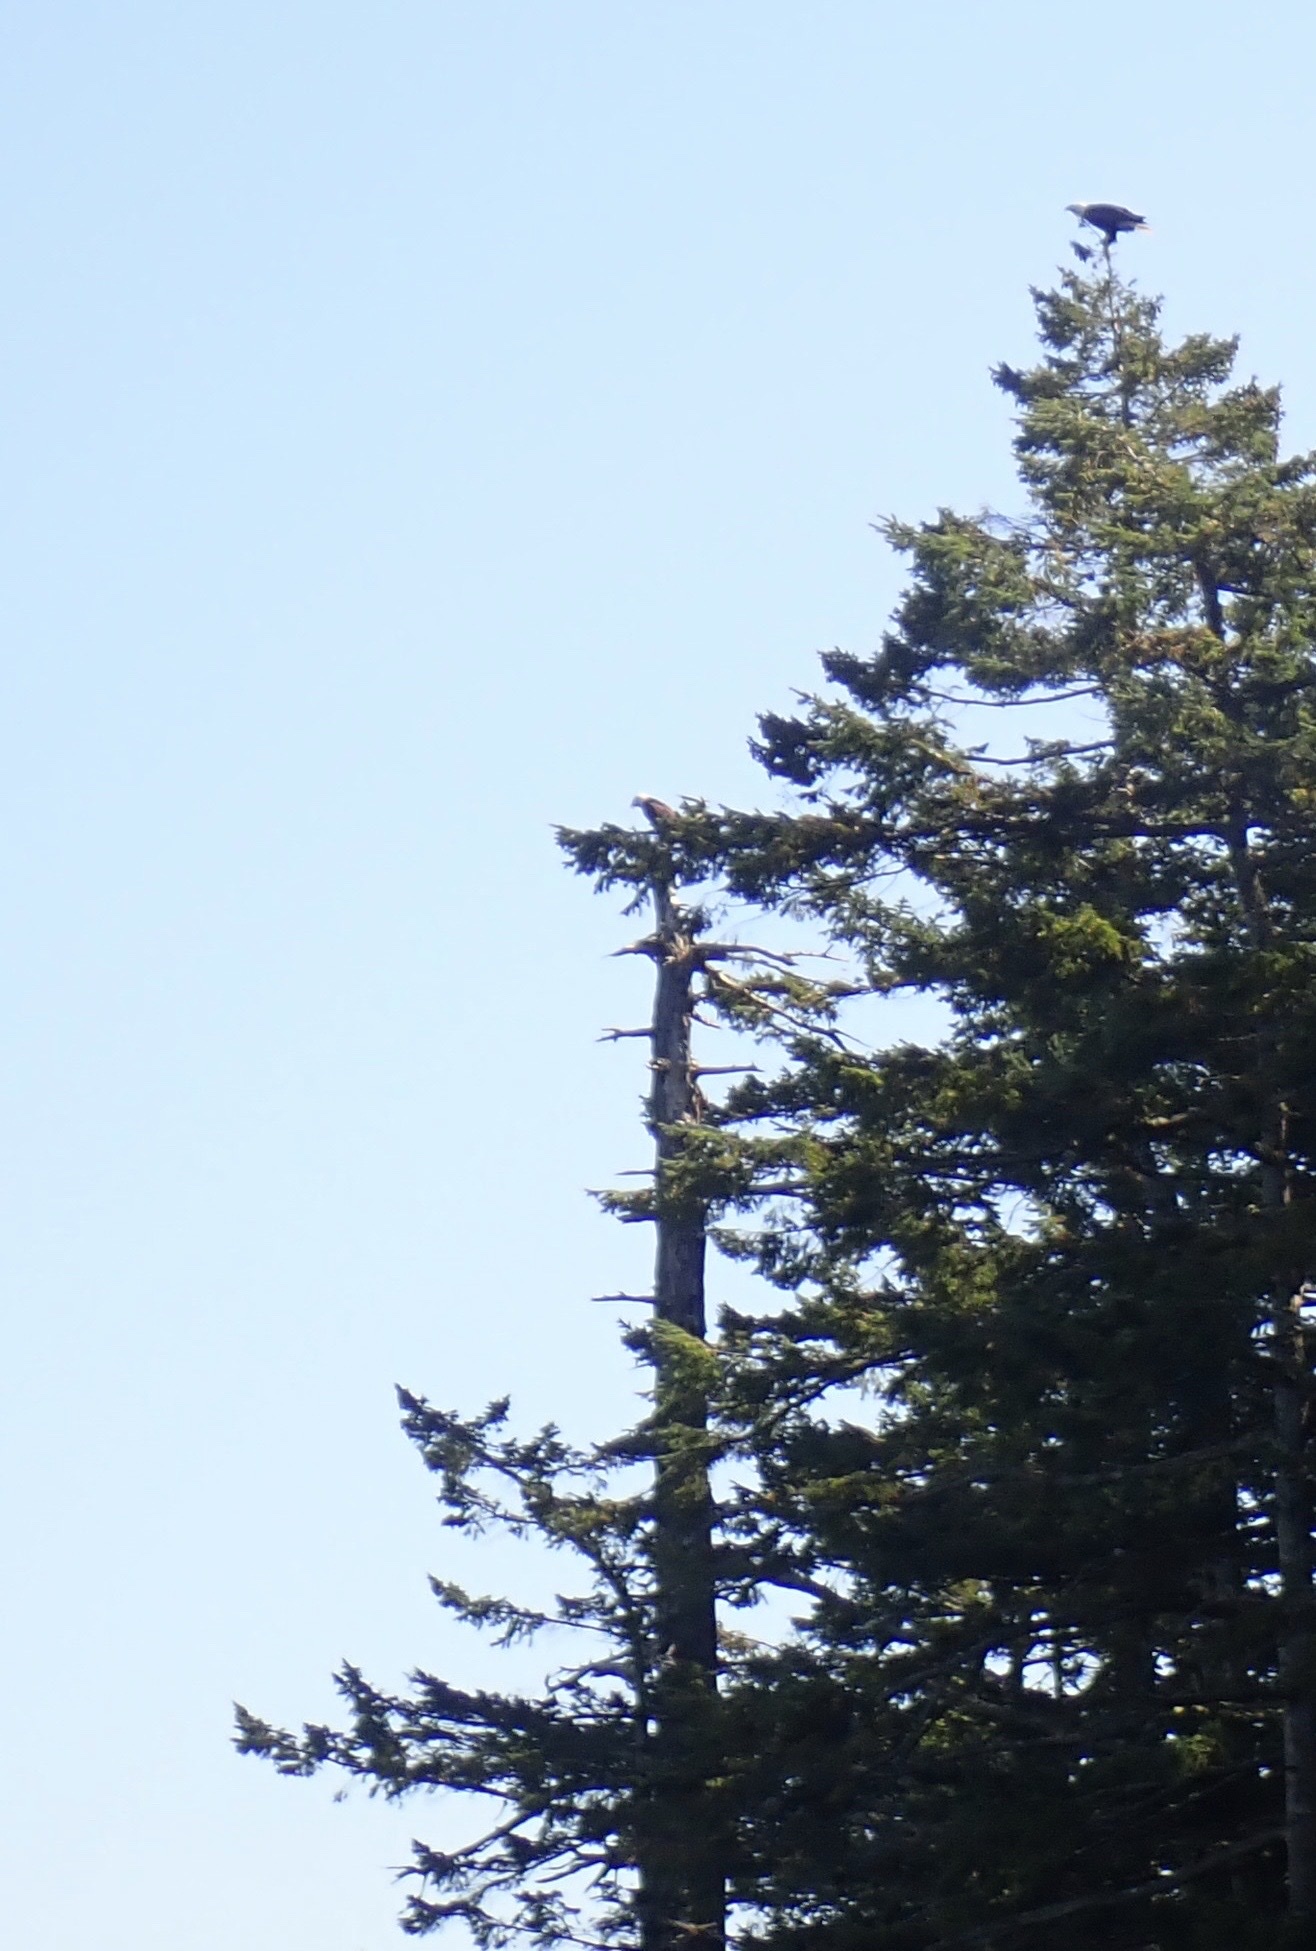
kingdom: Animalia
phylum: Chordata
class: Aves
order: Accipitriformes
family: Accipitridae
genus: Haliaeetus
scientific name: Haliaeetus leucocephalus
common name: Bald eagle
